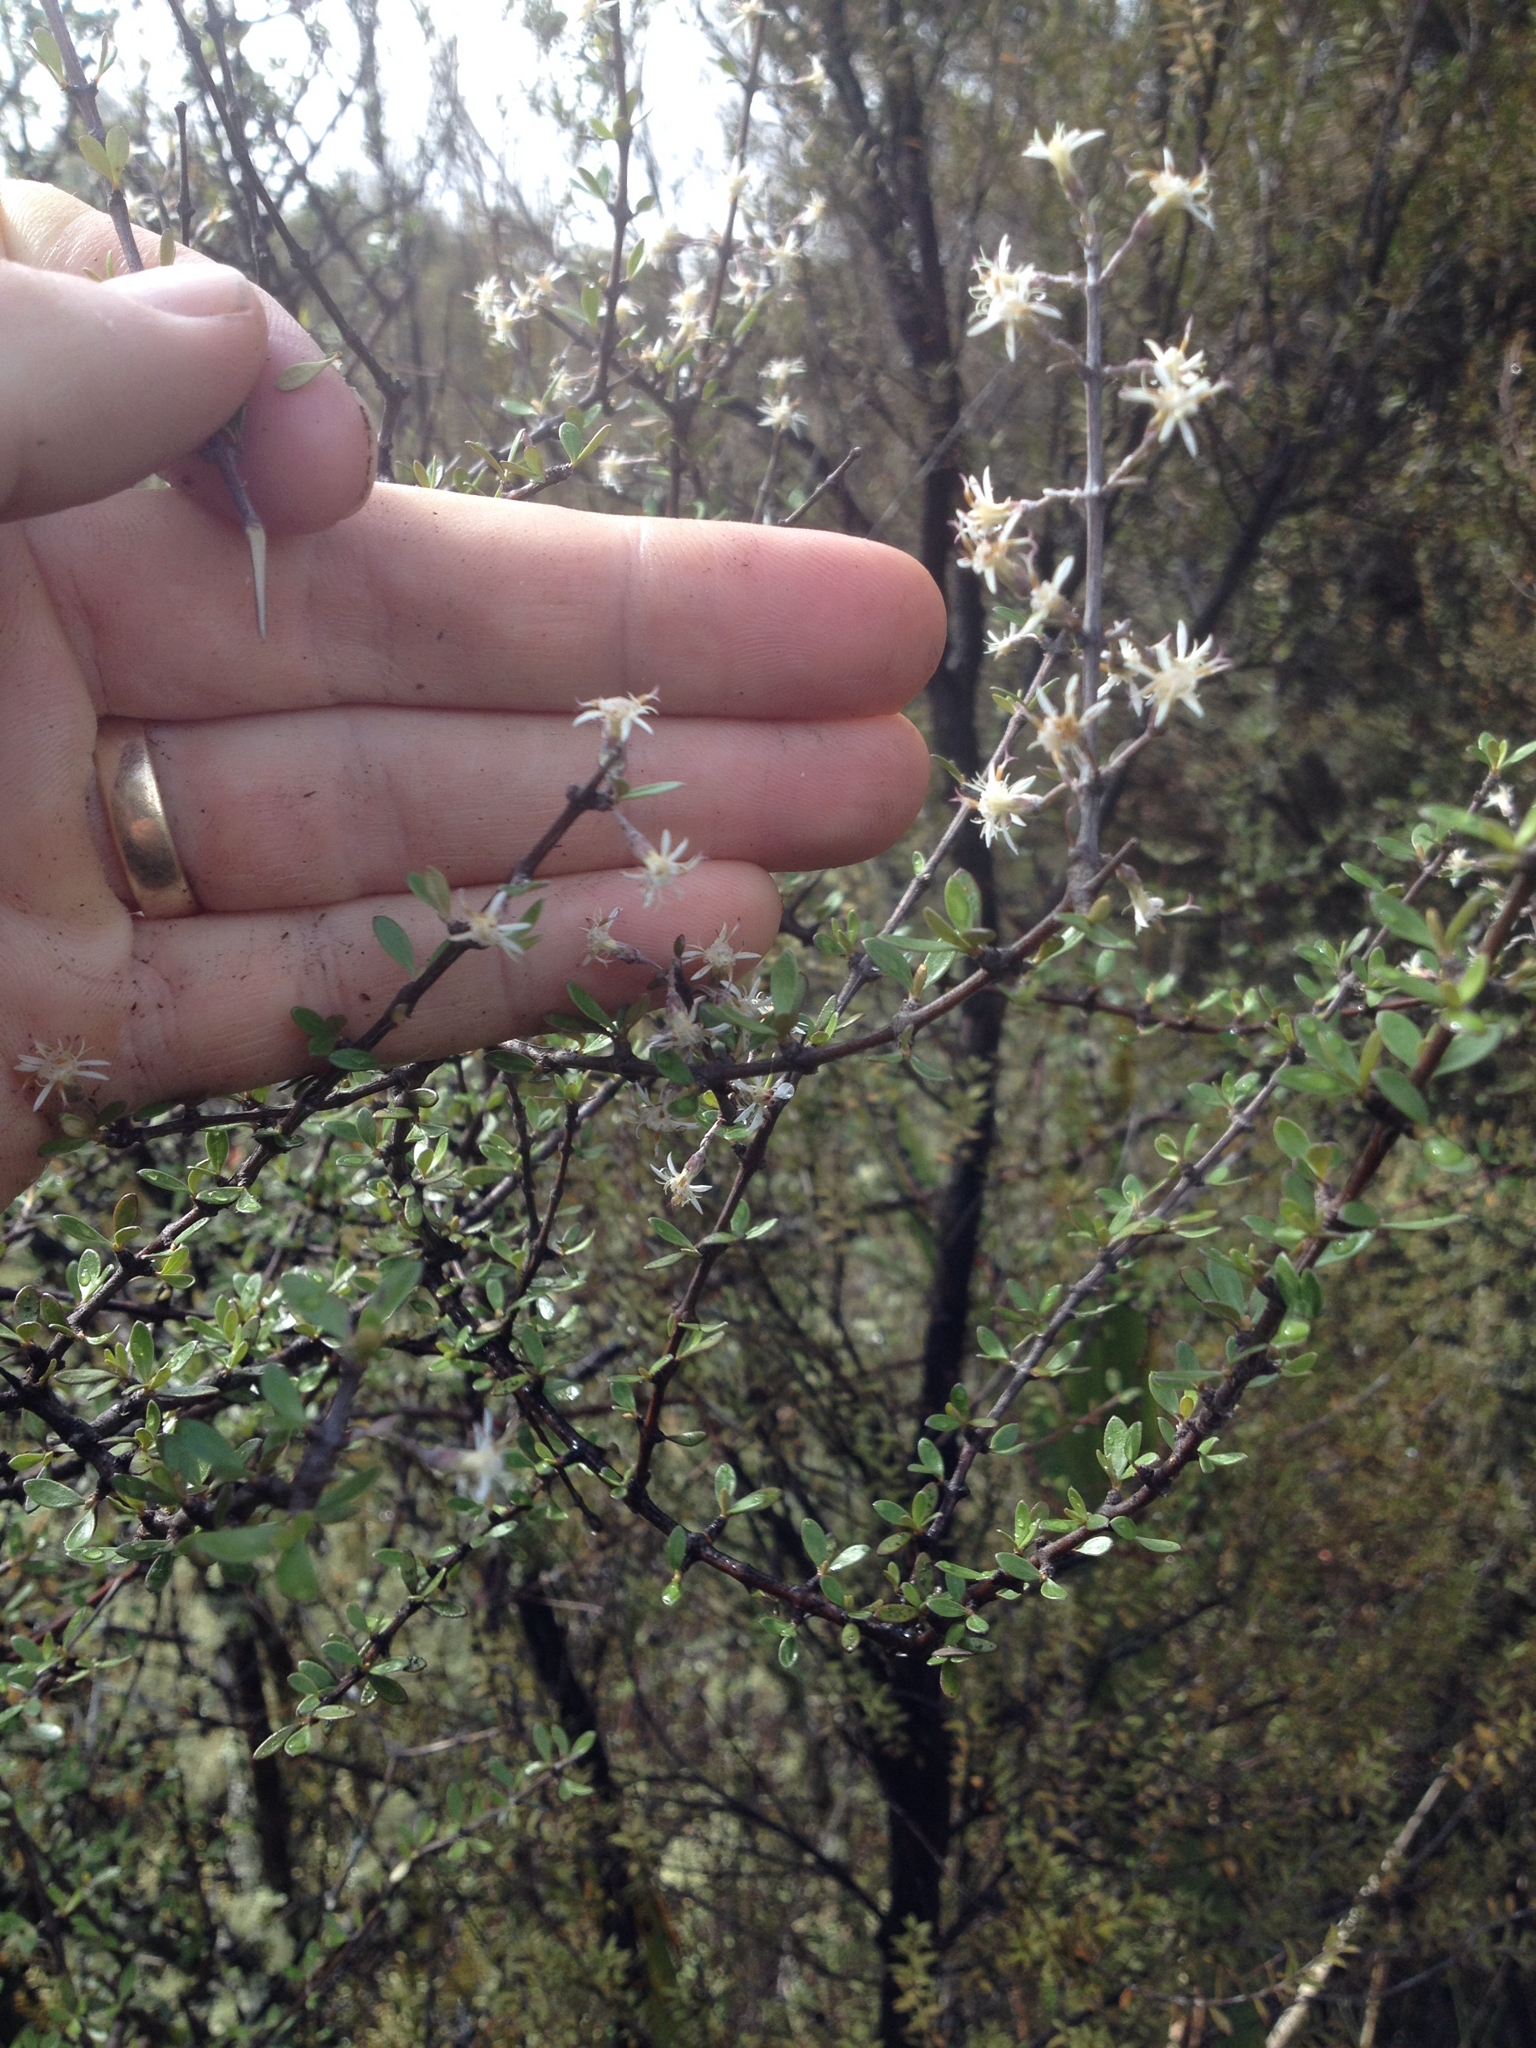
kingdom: Plantae
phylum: Tracheophyta
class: Magnoliopsida
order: Asterales
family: Asteraceae
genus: Olearia
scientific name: Olearia virgata
